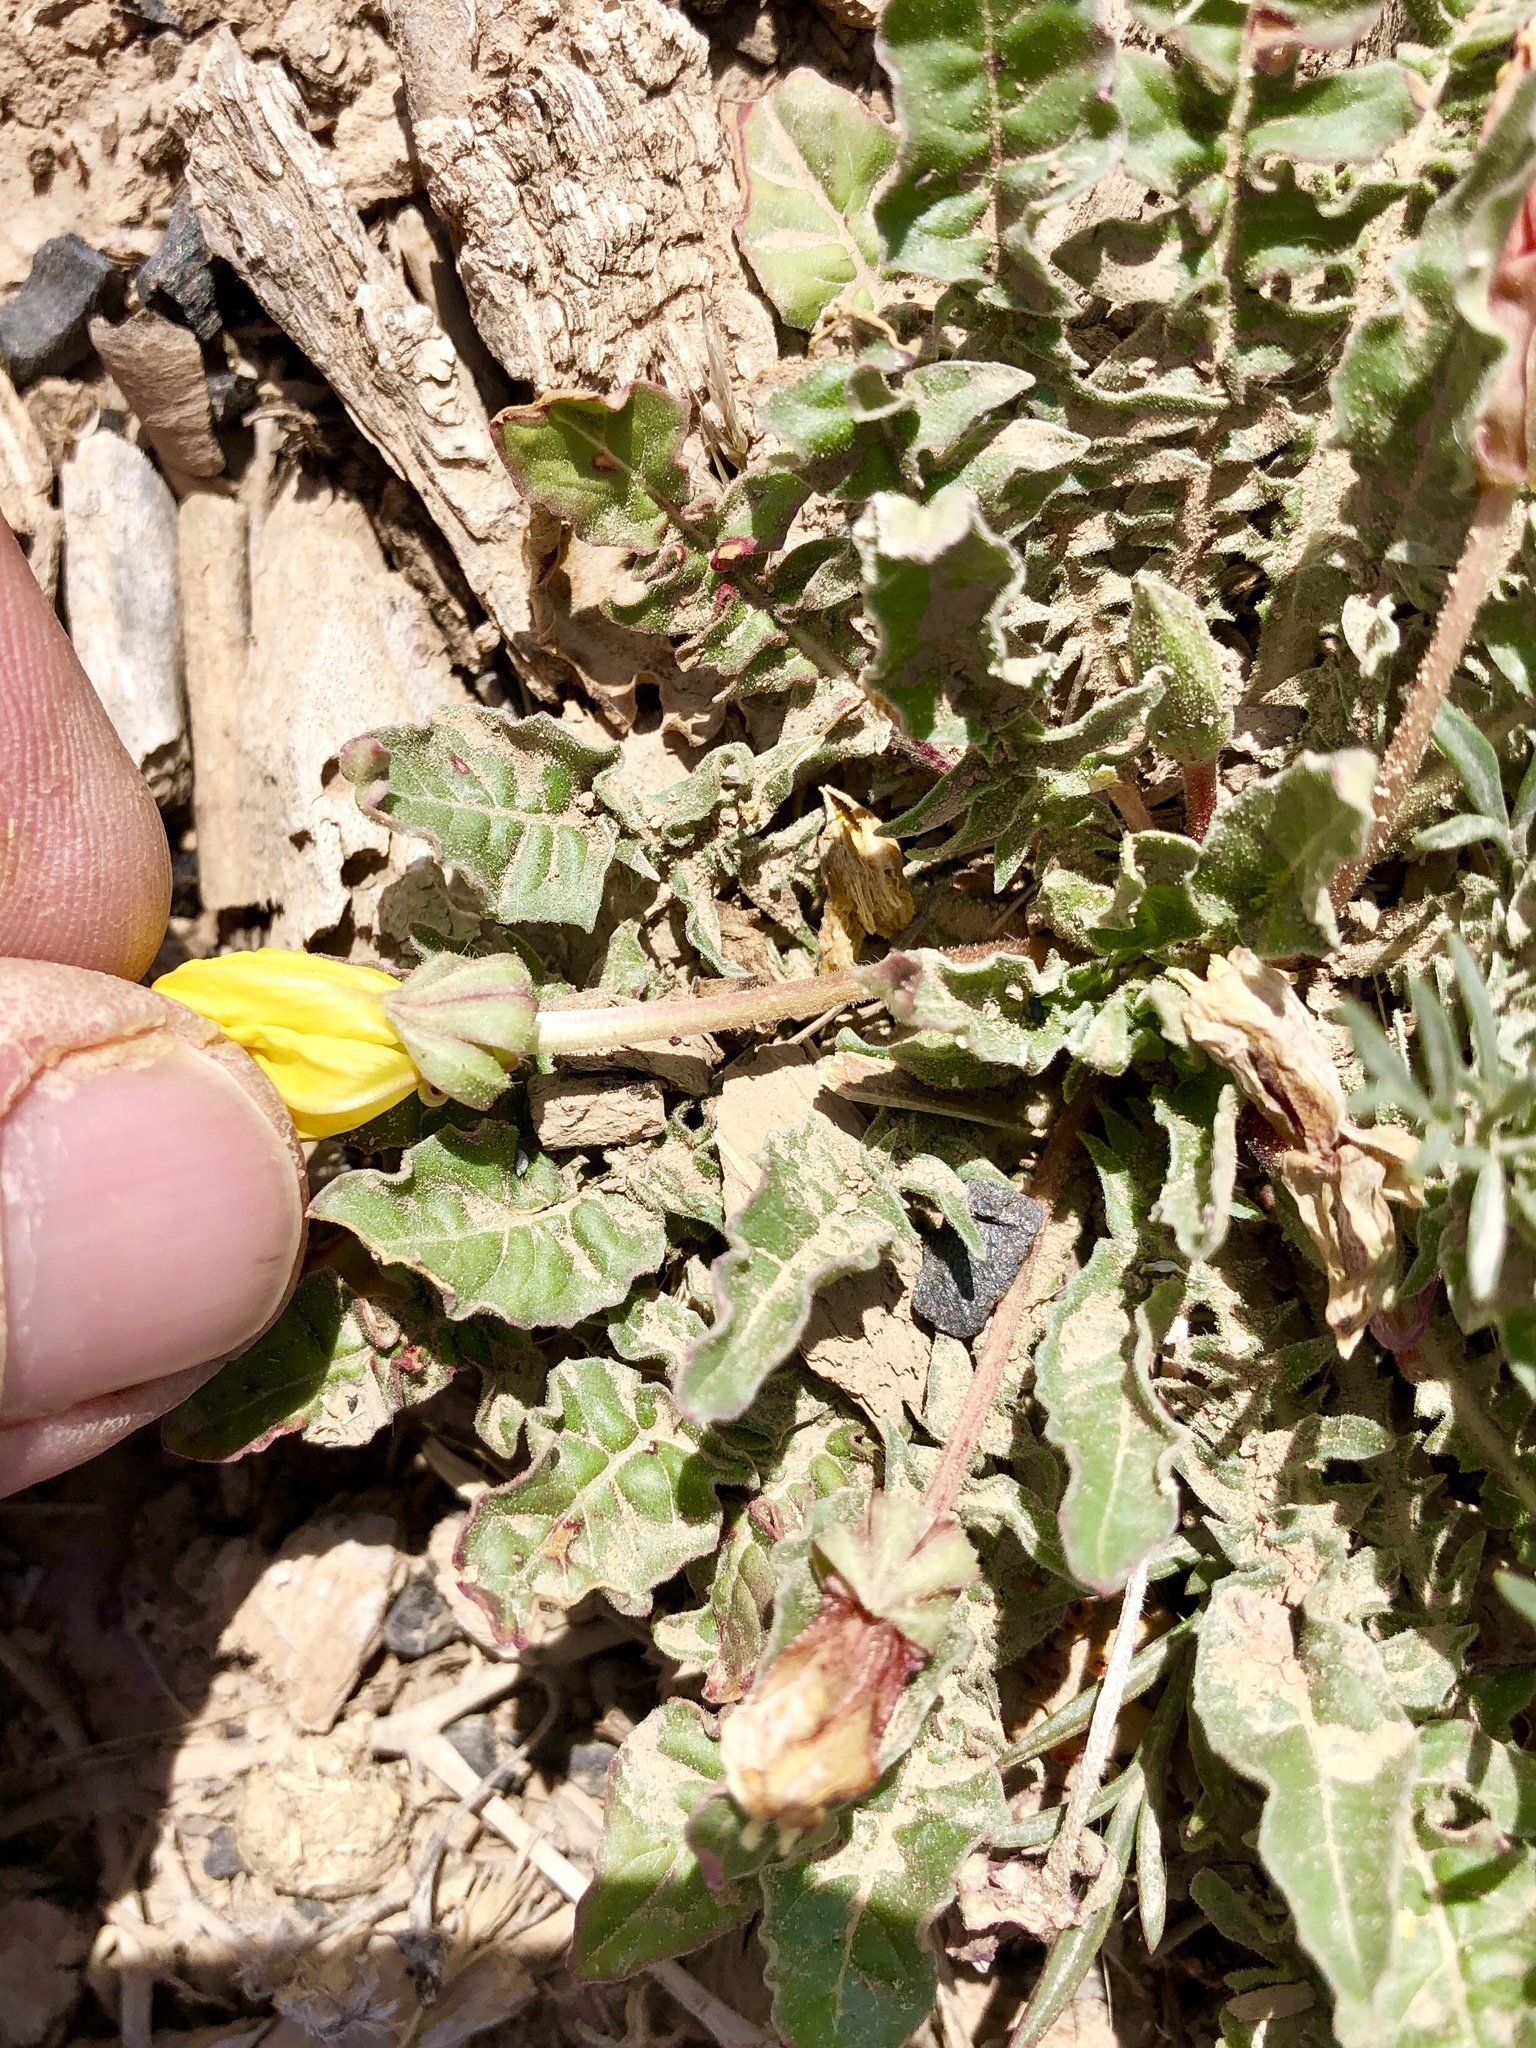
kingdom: Plantae
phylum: Tracheophyta
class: Magnoliopsida
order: Myrtales
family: Onagraceae
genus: Oenothera
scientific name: Oenothera primiveris
